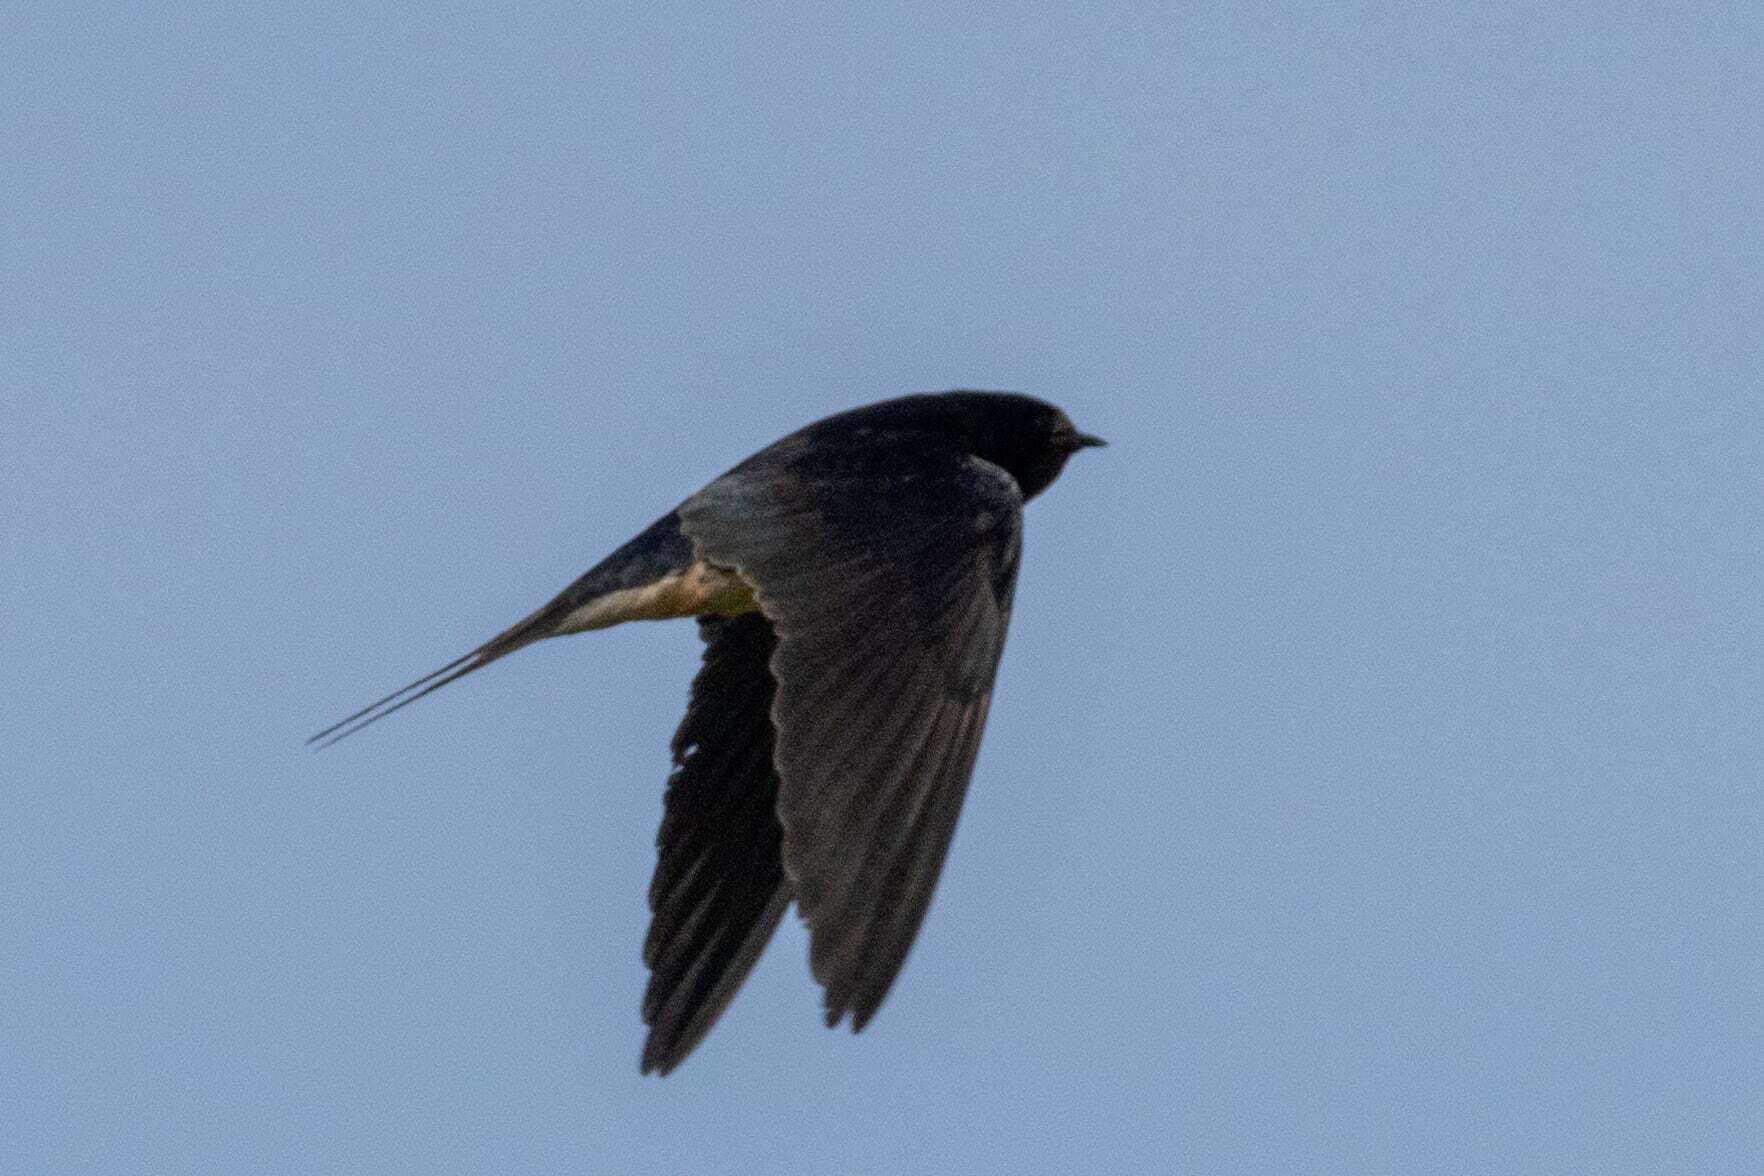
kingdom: Animalia
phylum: Chordata
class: Aves
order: Passeriformes
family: Hirundinidae
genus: Hirundo
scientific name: Hirundo rustica
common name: Barn swallow
